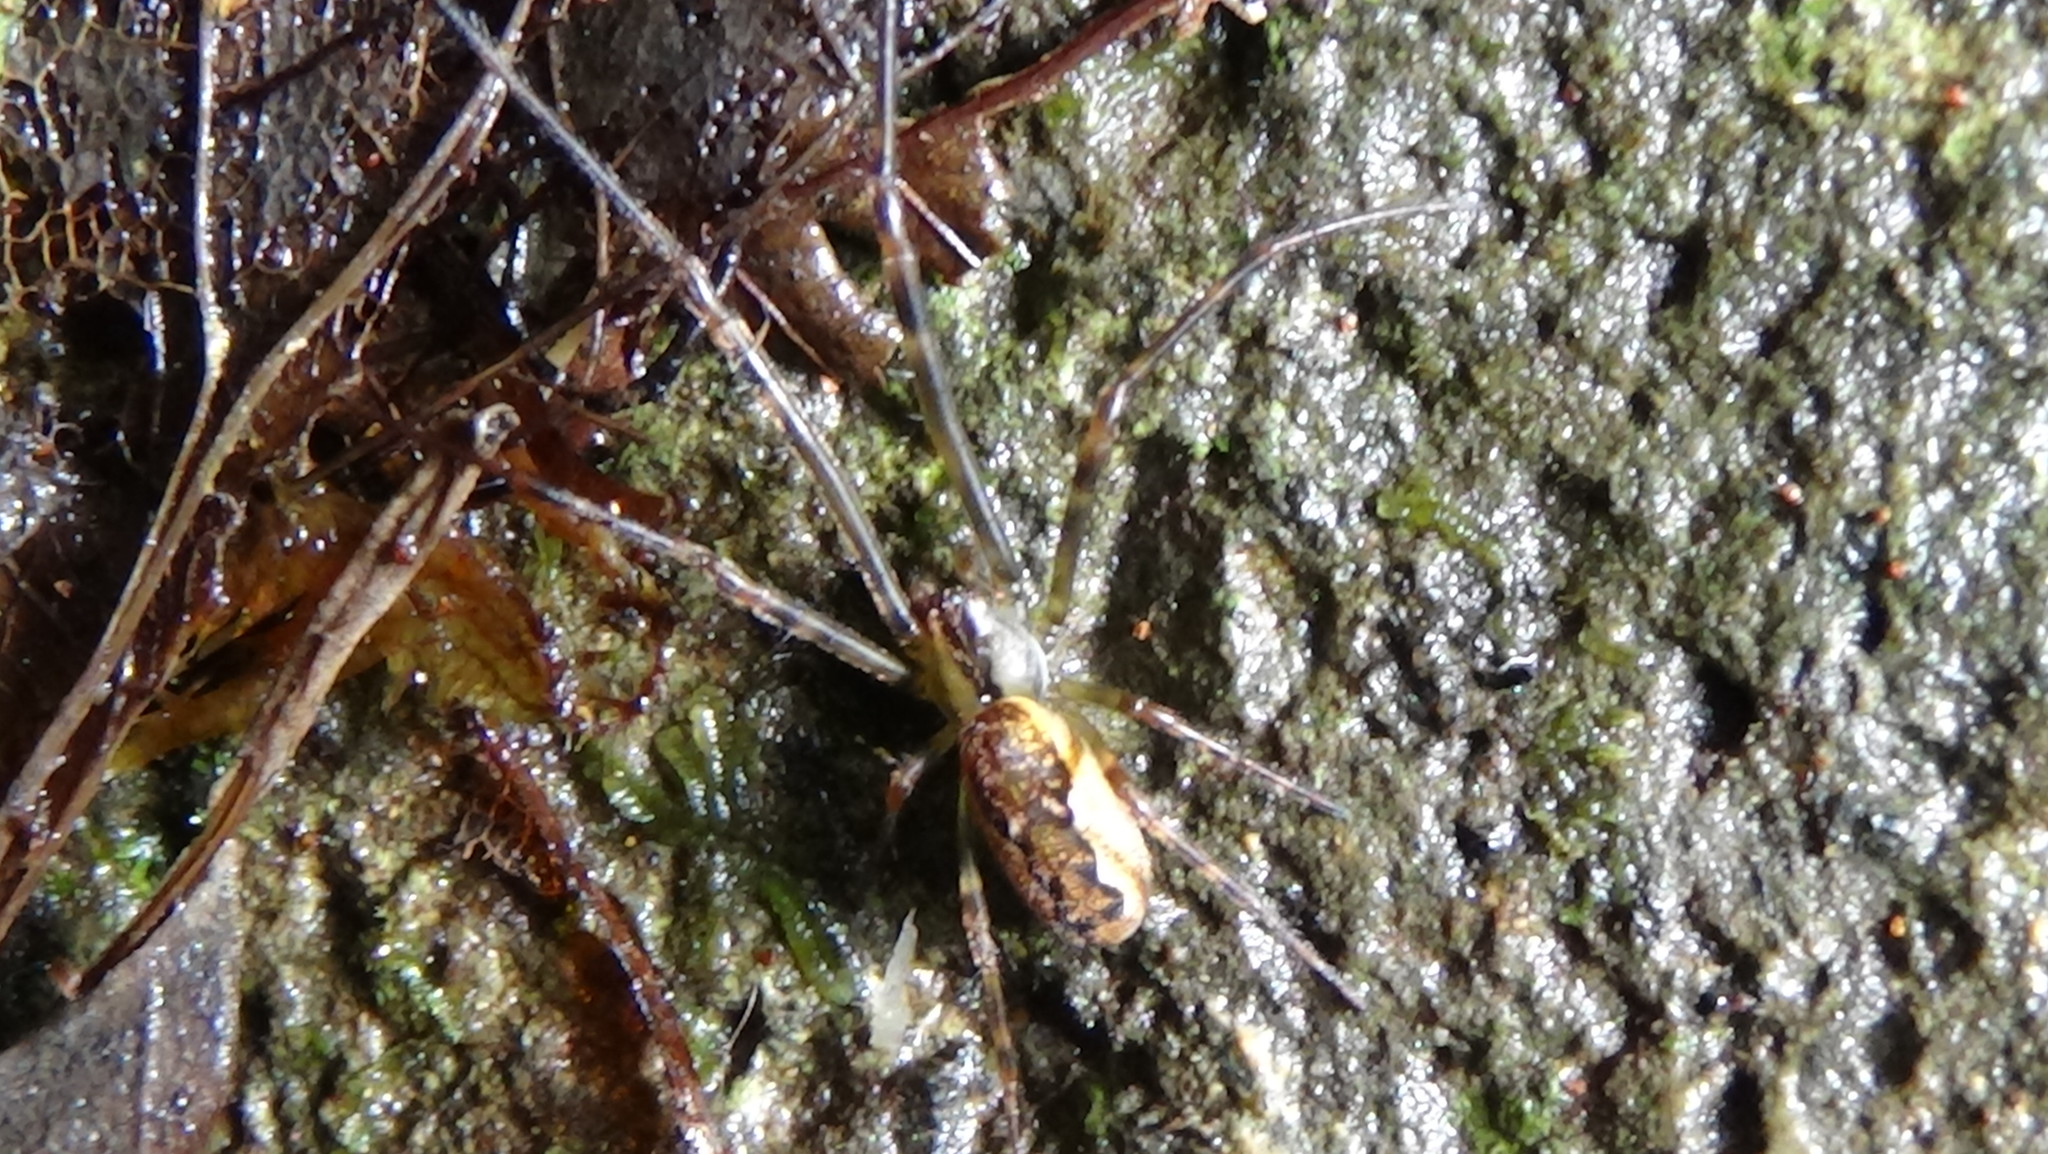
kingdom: Animalia
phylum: Arthropoda
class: Arachnida
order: Araneae
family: Tetragnathidae
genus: Nanometa
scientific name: Nanometa lagenifera
